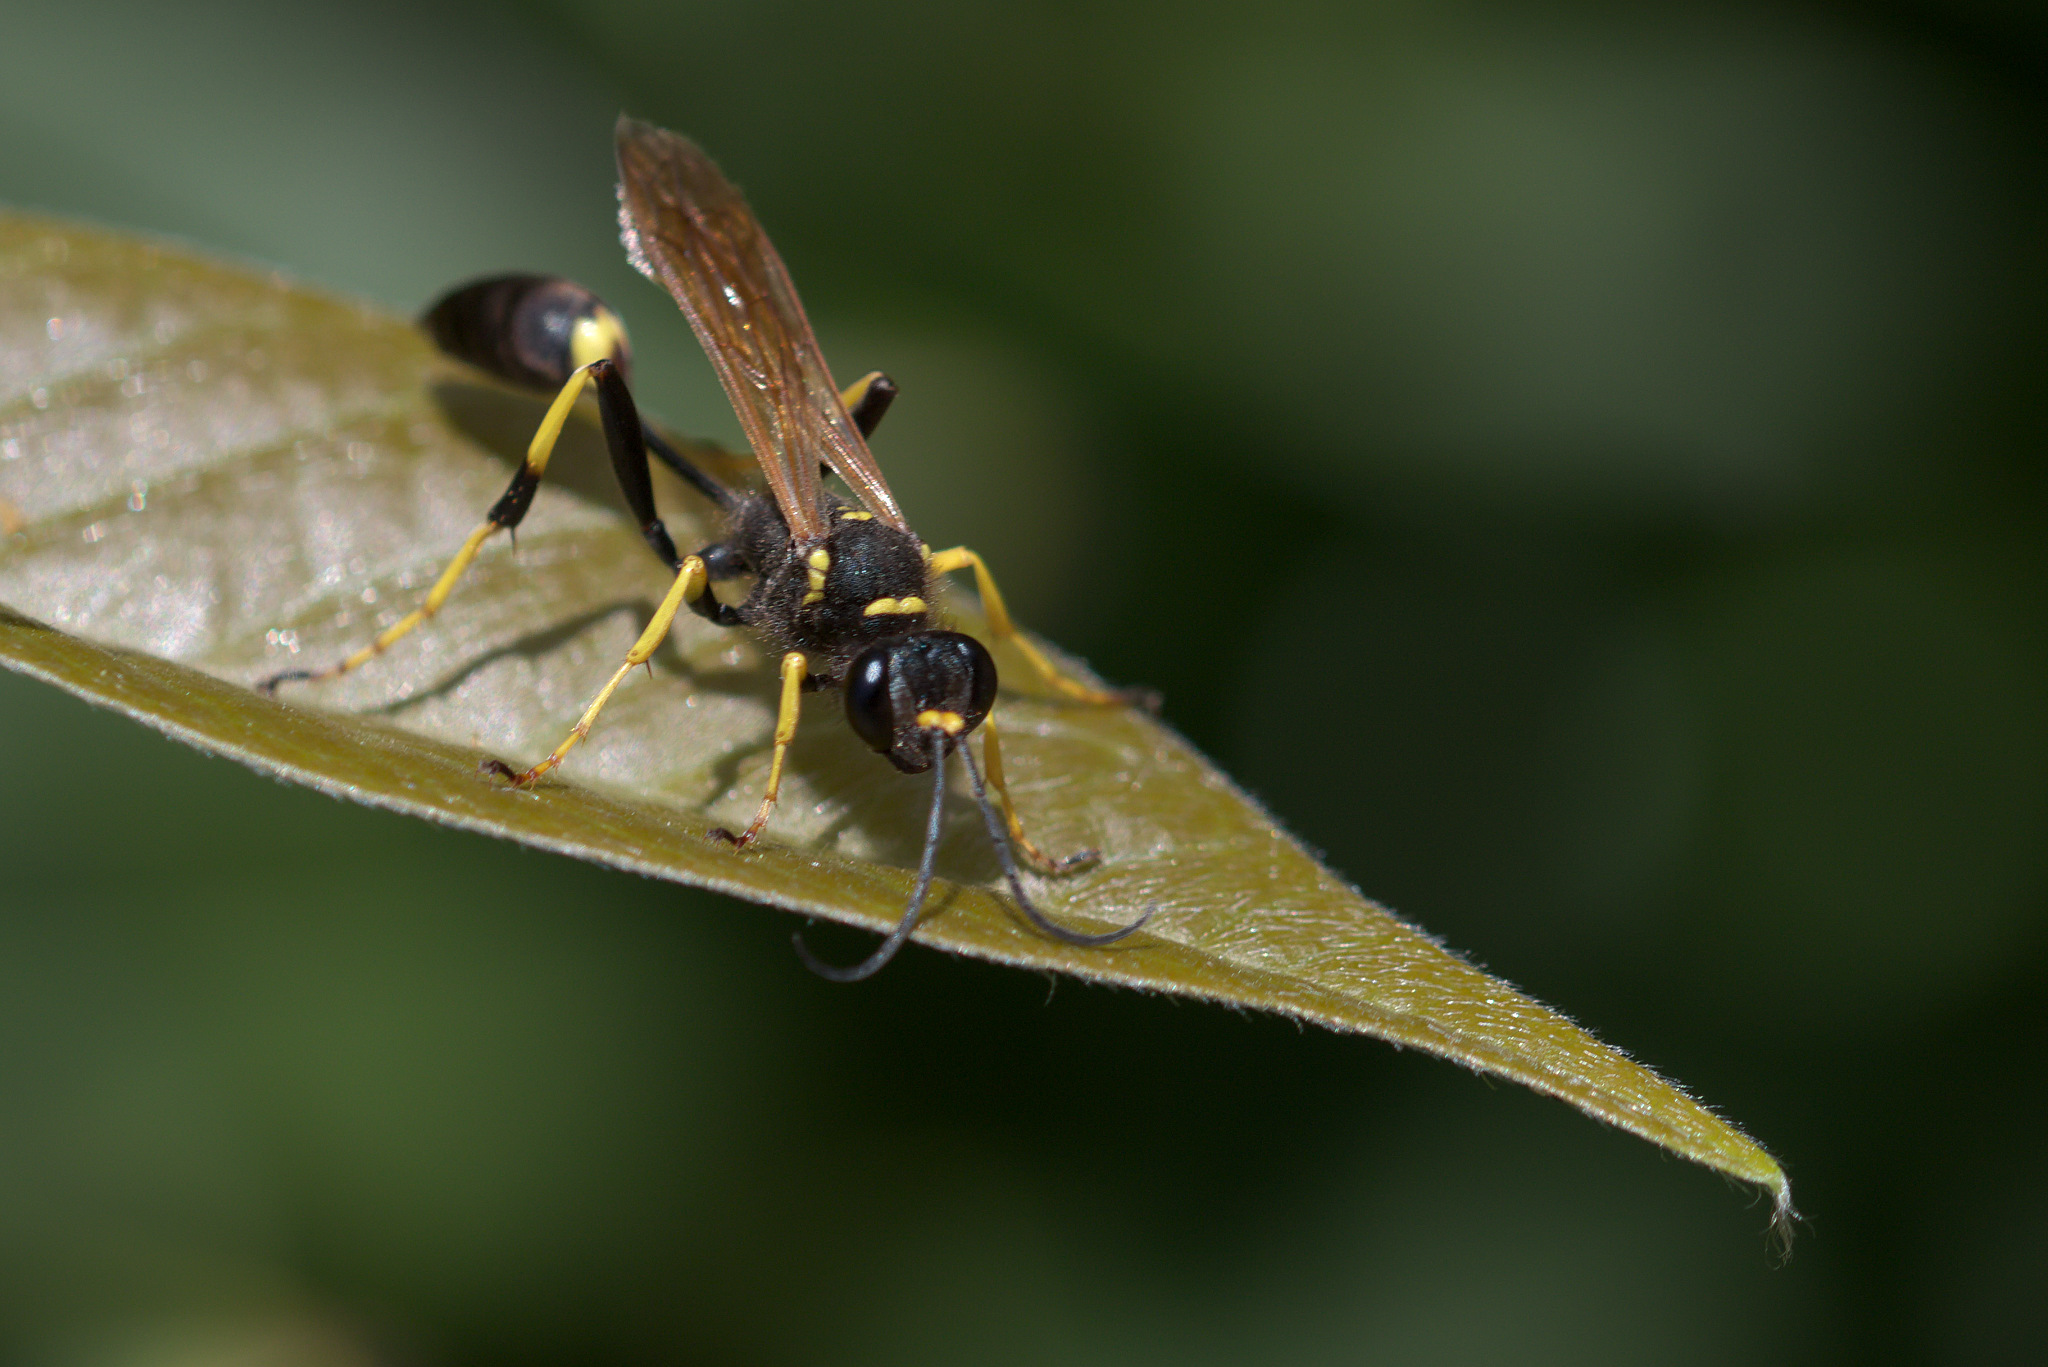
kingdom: Animalia
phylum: Arthropoda
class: Insecta
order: Hymenoptera
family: Sphecidae
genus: Sceliphron
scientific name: Sceliphron caementarium
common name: Mud dauber
